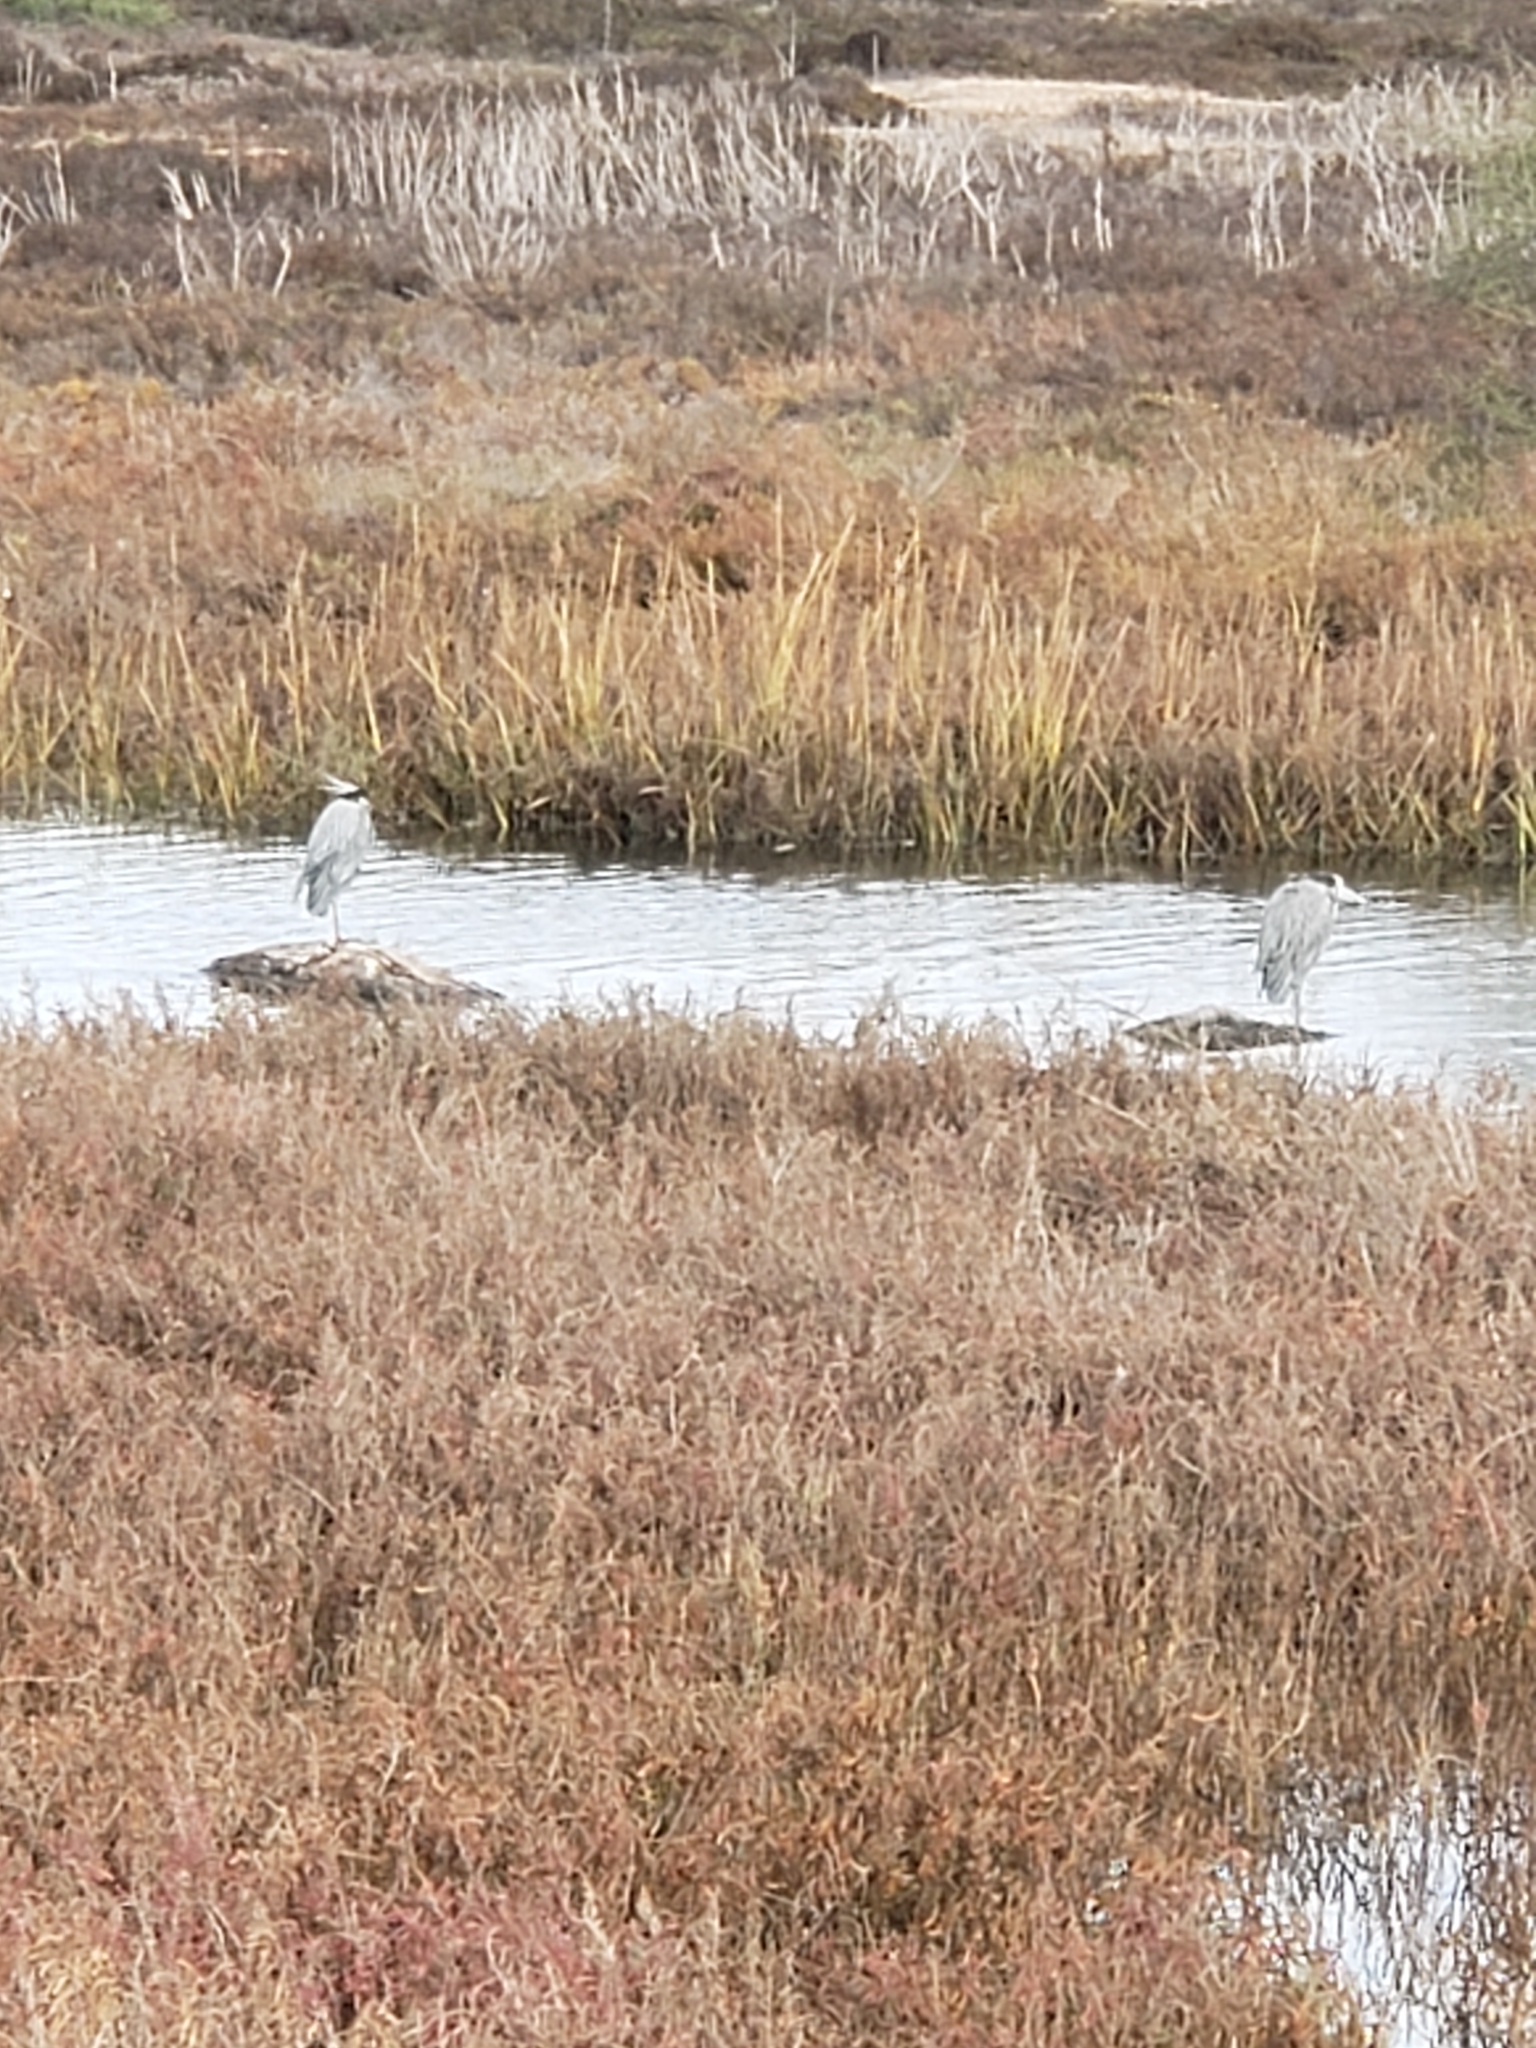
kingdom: Animalia
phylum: Chordata
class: Aves
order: Pelecaniformes
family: Ardeidae
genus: Ardea
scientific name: Ardea herodias
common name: Great blue heron
